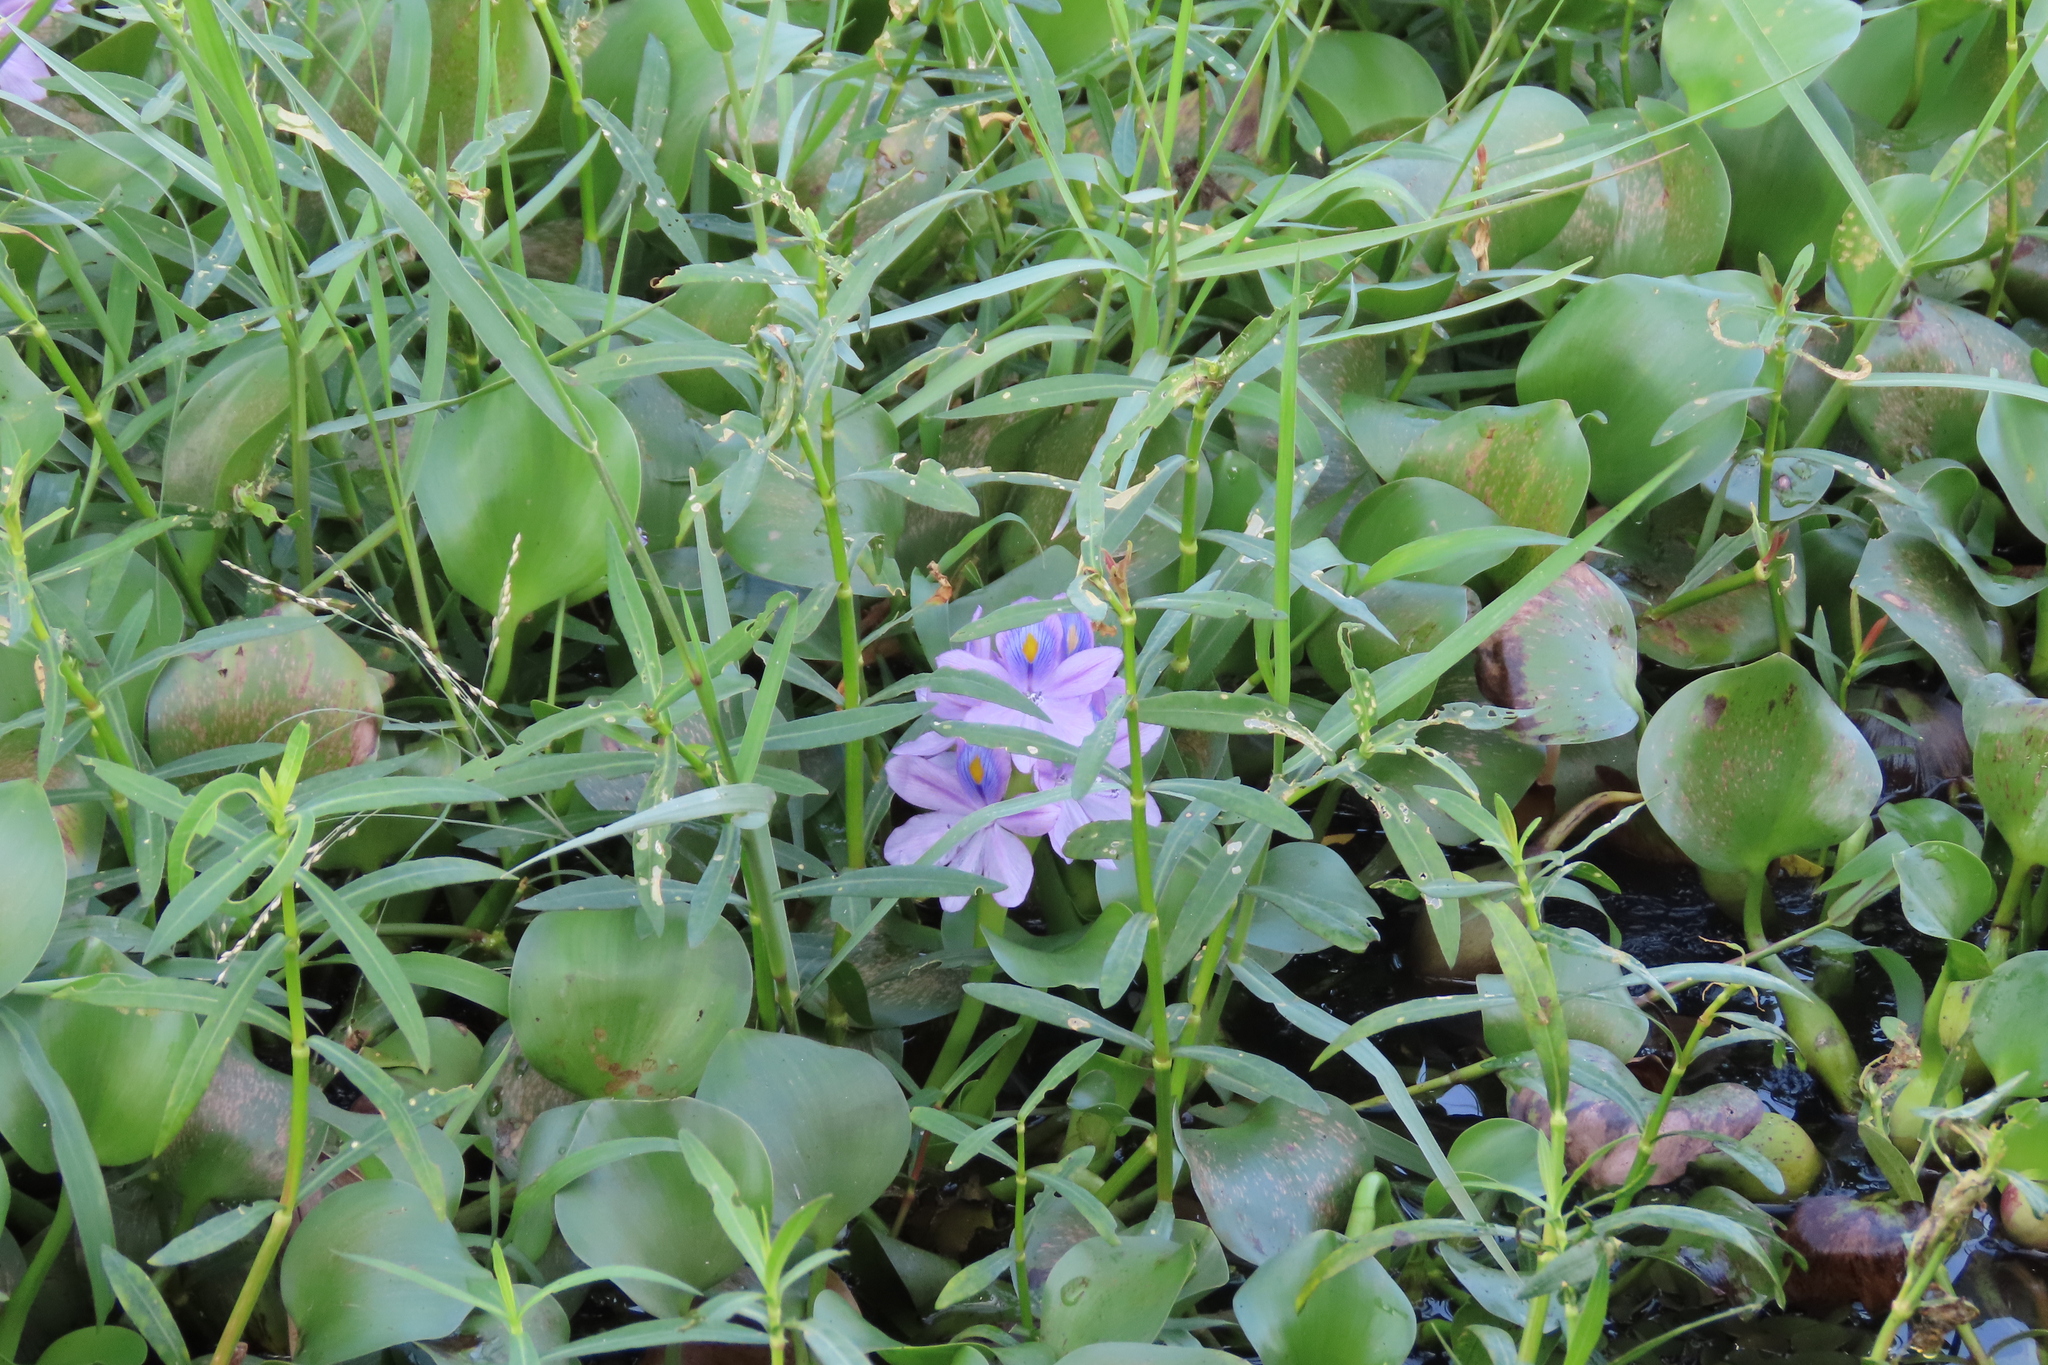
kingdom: Plantae
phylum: Tracheophyta
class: Liliopsida
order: Commelinales
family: Pontederiaceae
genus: Pontederia
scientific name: Pontederia crassipes
